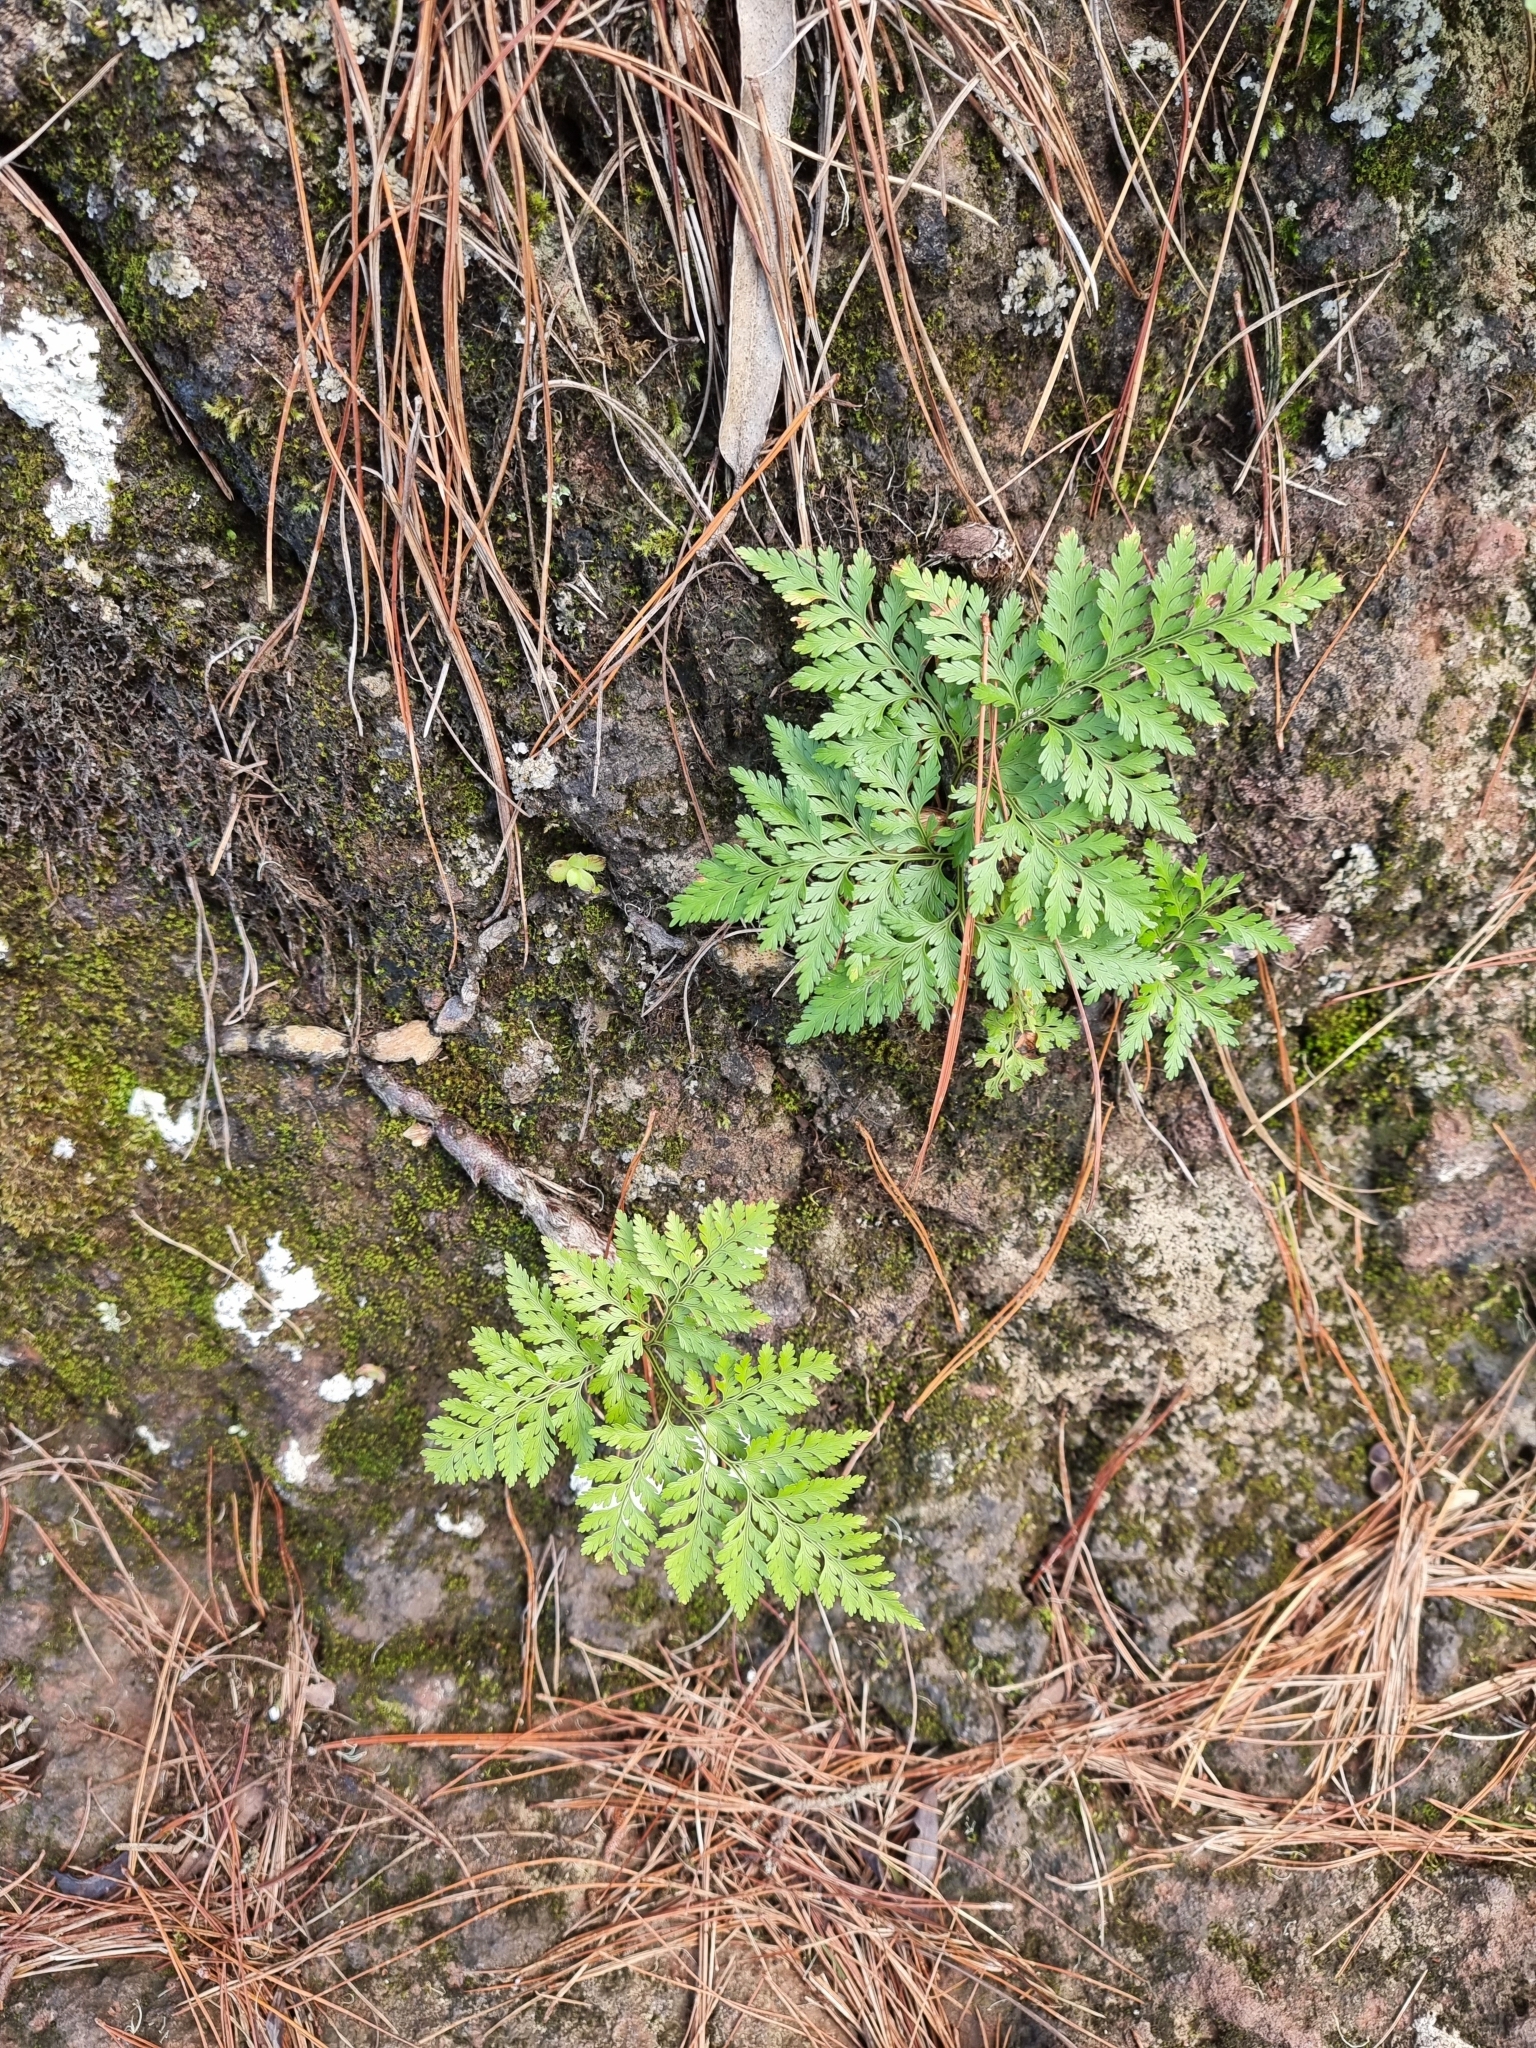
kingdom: Plantae
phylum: Tracheophyta
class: Polypodiopsida
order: Polypodiales
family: Davalliaceae
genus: Davallia
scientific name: Davallia canariensis
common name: Hare's-foot fern
